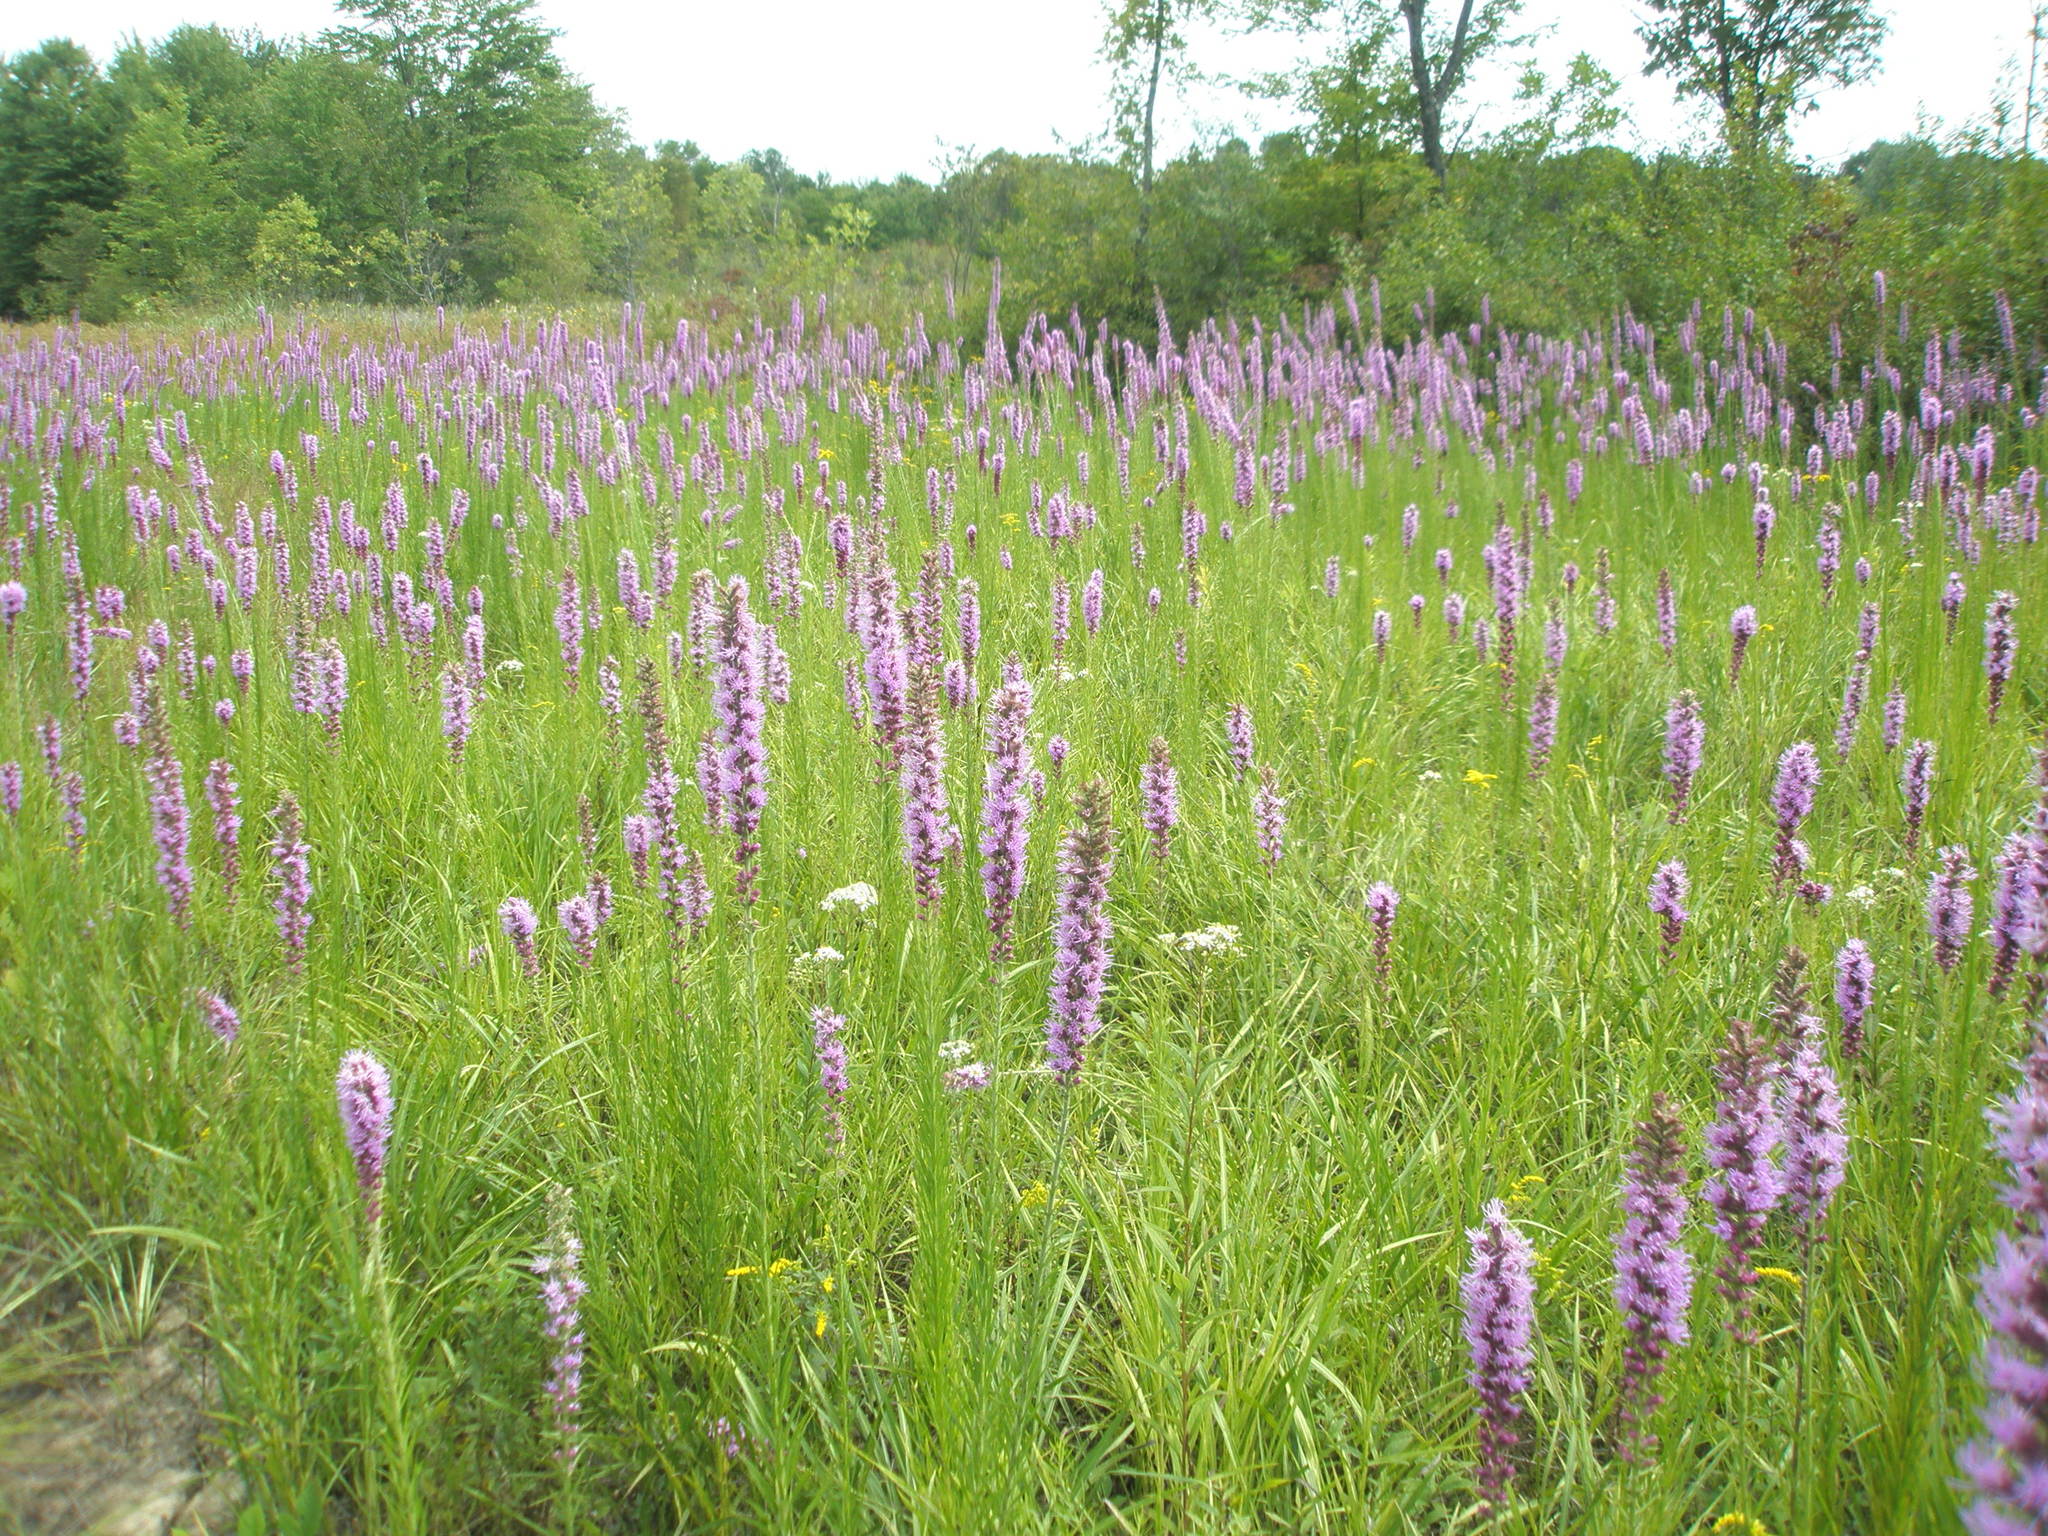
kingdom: Plantae
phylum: Tracheophyta
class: Magnoliopsida
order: Asterales
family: Asteraceae
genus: Liatris
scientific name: Liatris pycnostachya
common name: Cattail gayfeather
